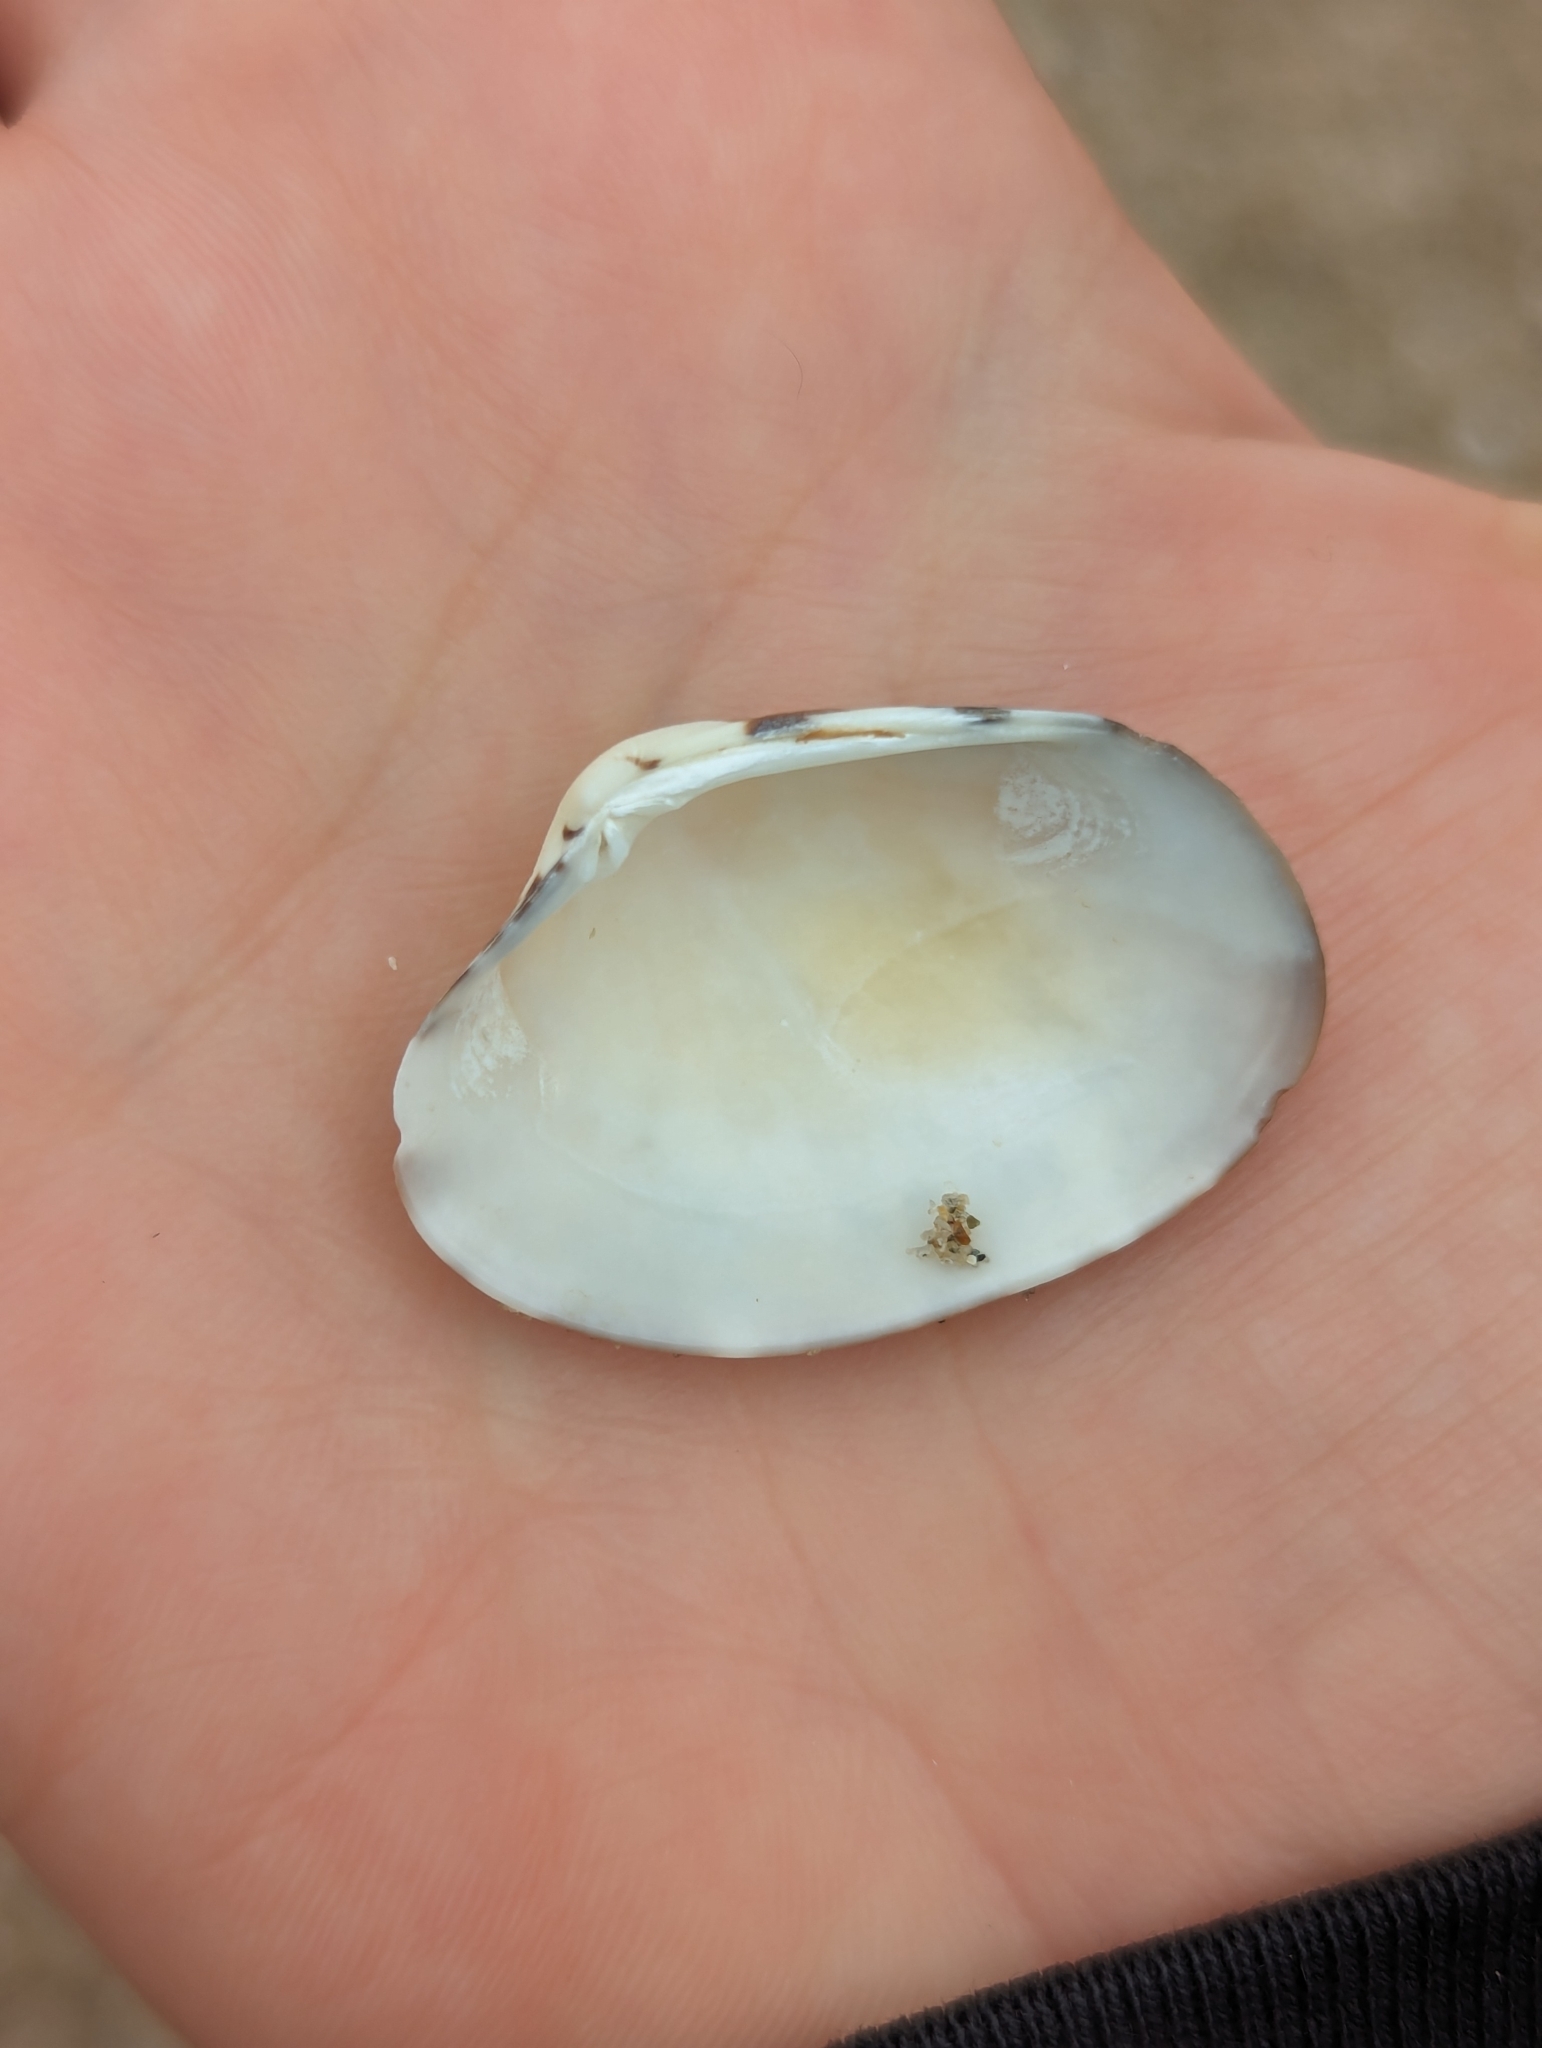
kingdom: Animalia
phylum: Mollusca
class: Bivalvia
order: Venerida
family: Veneridae
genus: Ruditapes
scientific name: Ruditapes philippinarum
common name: Manila clam
